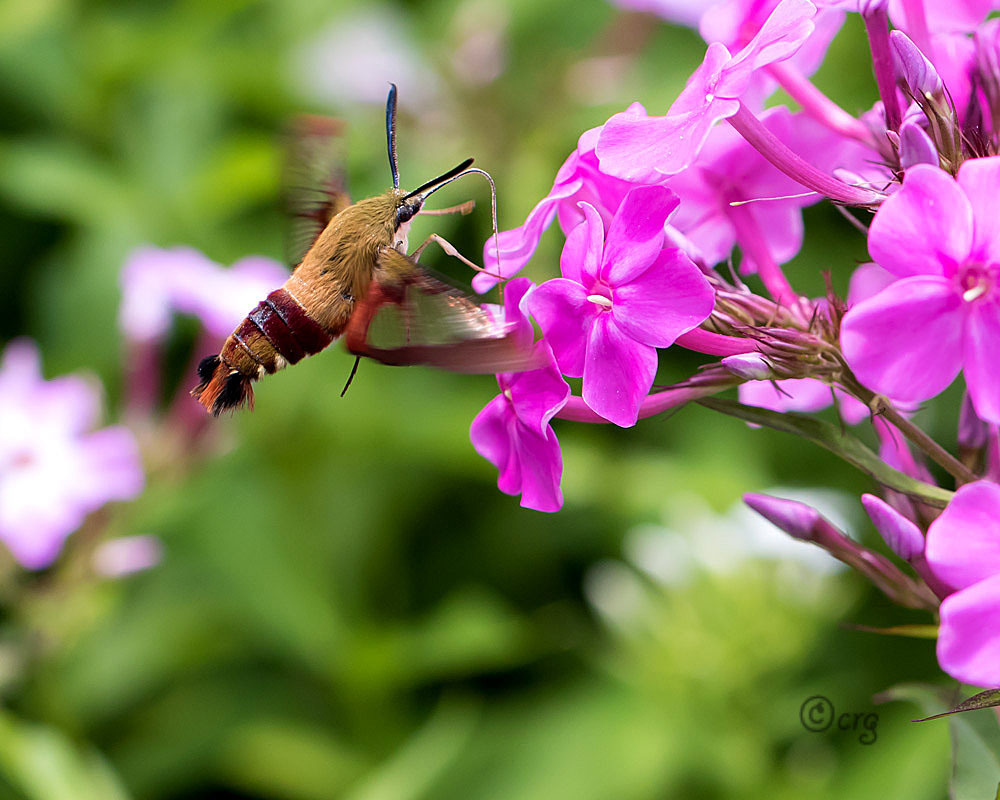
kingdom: Animalia
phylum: Arthropoda
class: Insecta
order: Lepidoptera
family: Sphingidae
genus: Hemaris
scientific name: Hemaris thysbe
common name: Common clear-wing
